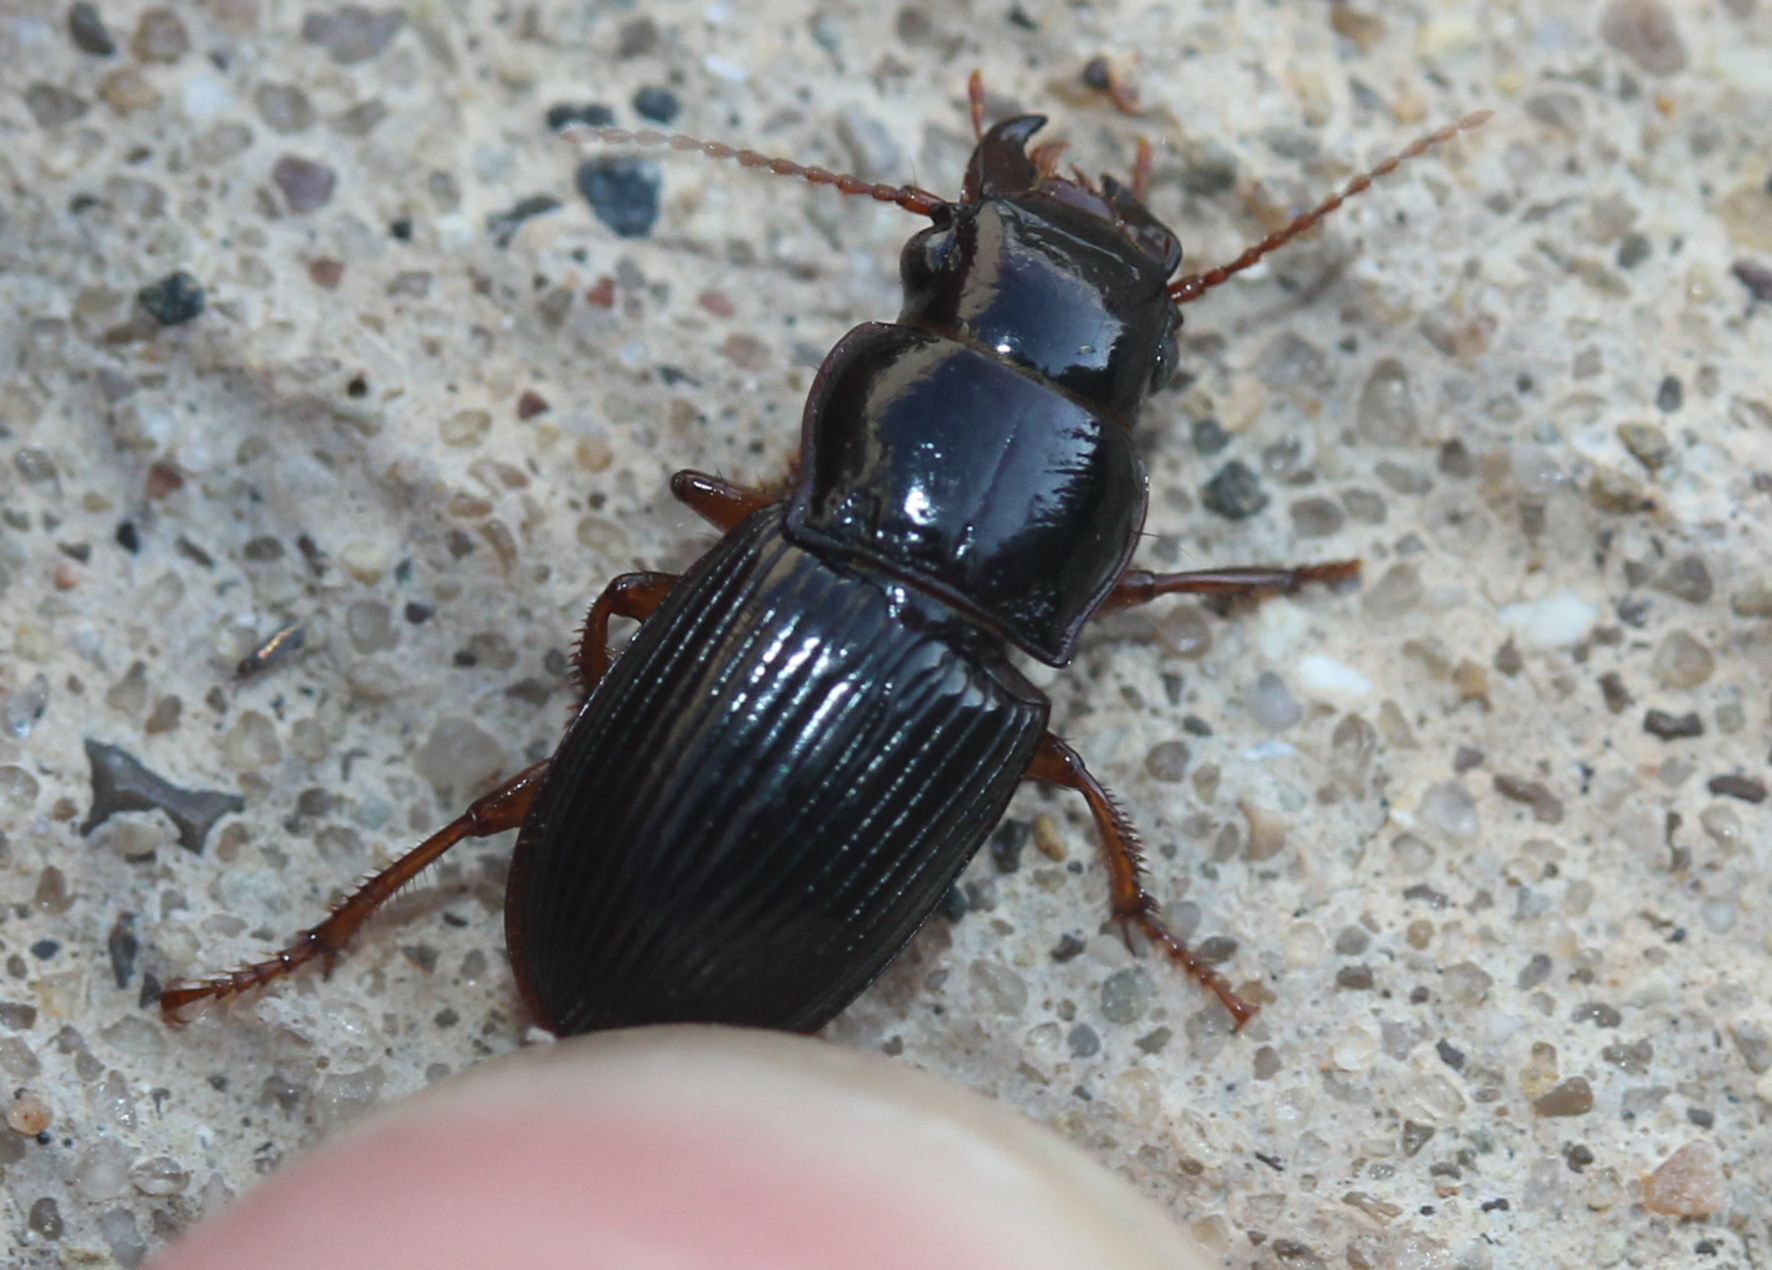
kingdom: Animalia
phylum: Arthropoda
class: Insecta
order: Coleoptera
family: Carabidae
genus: Cratacanthus
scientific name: Cratacanthus dubius
